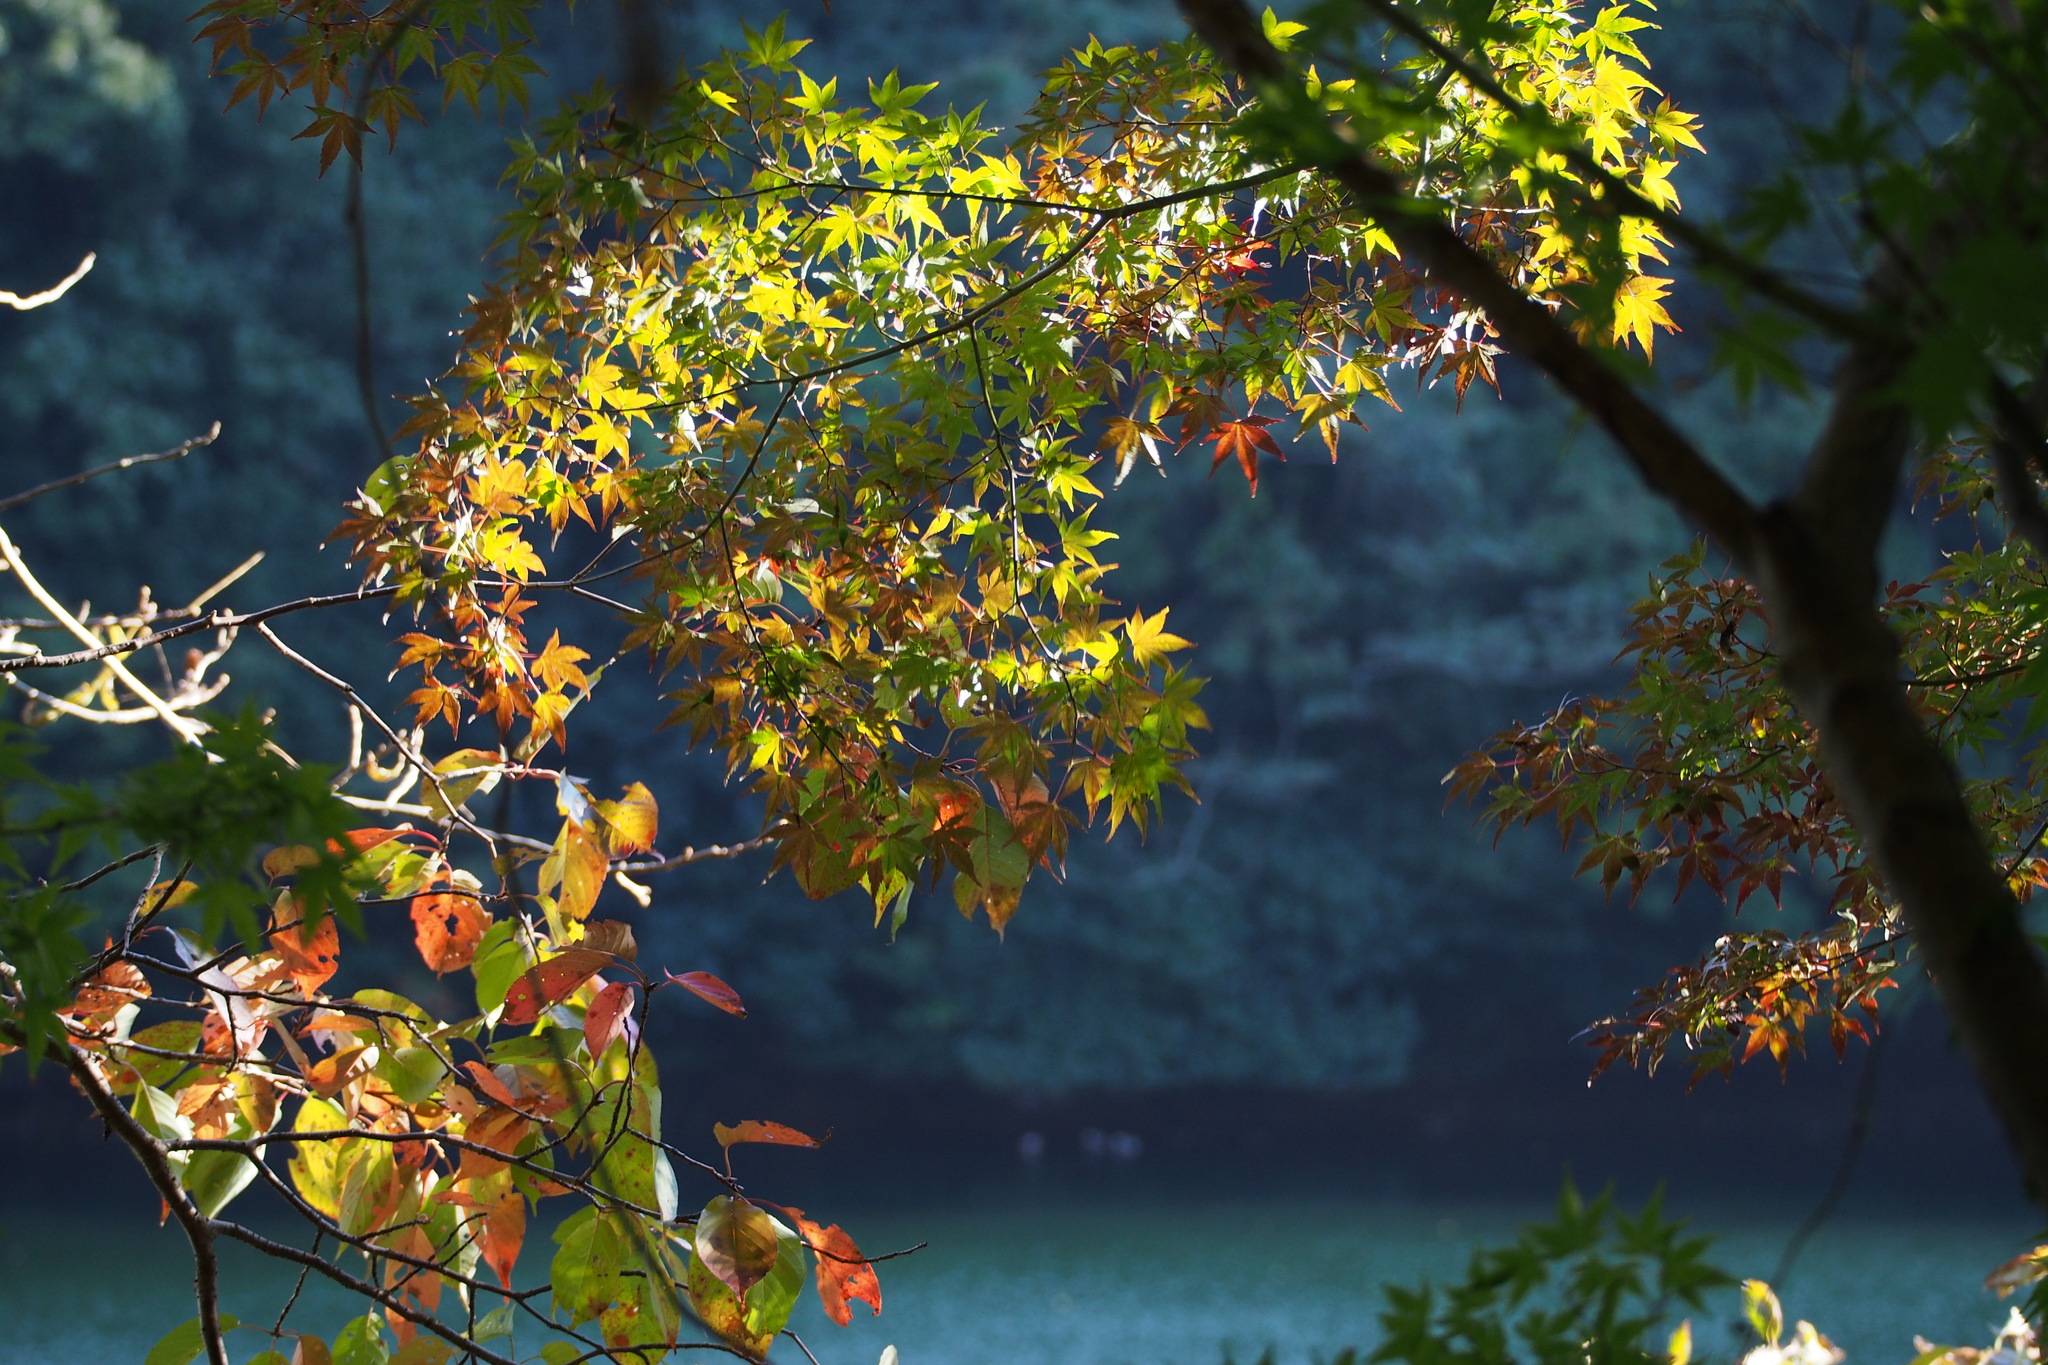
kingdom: Plantae
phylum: Tracheophyta
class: Magnoliopsida
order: Sapindales
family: Sapindaceae
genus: Acer
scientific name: Acer palmatum
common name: Japanese maple
